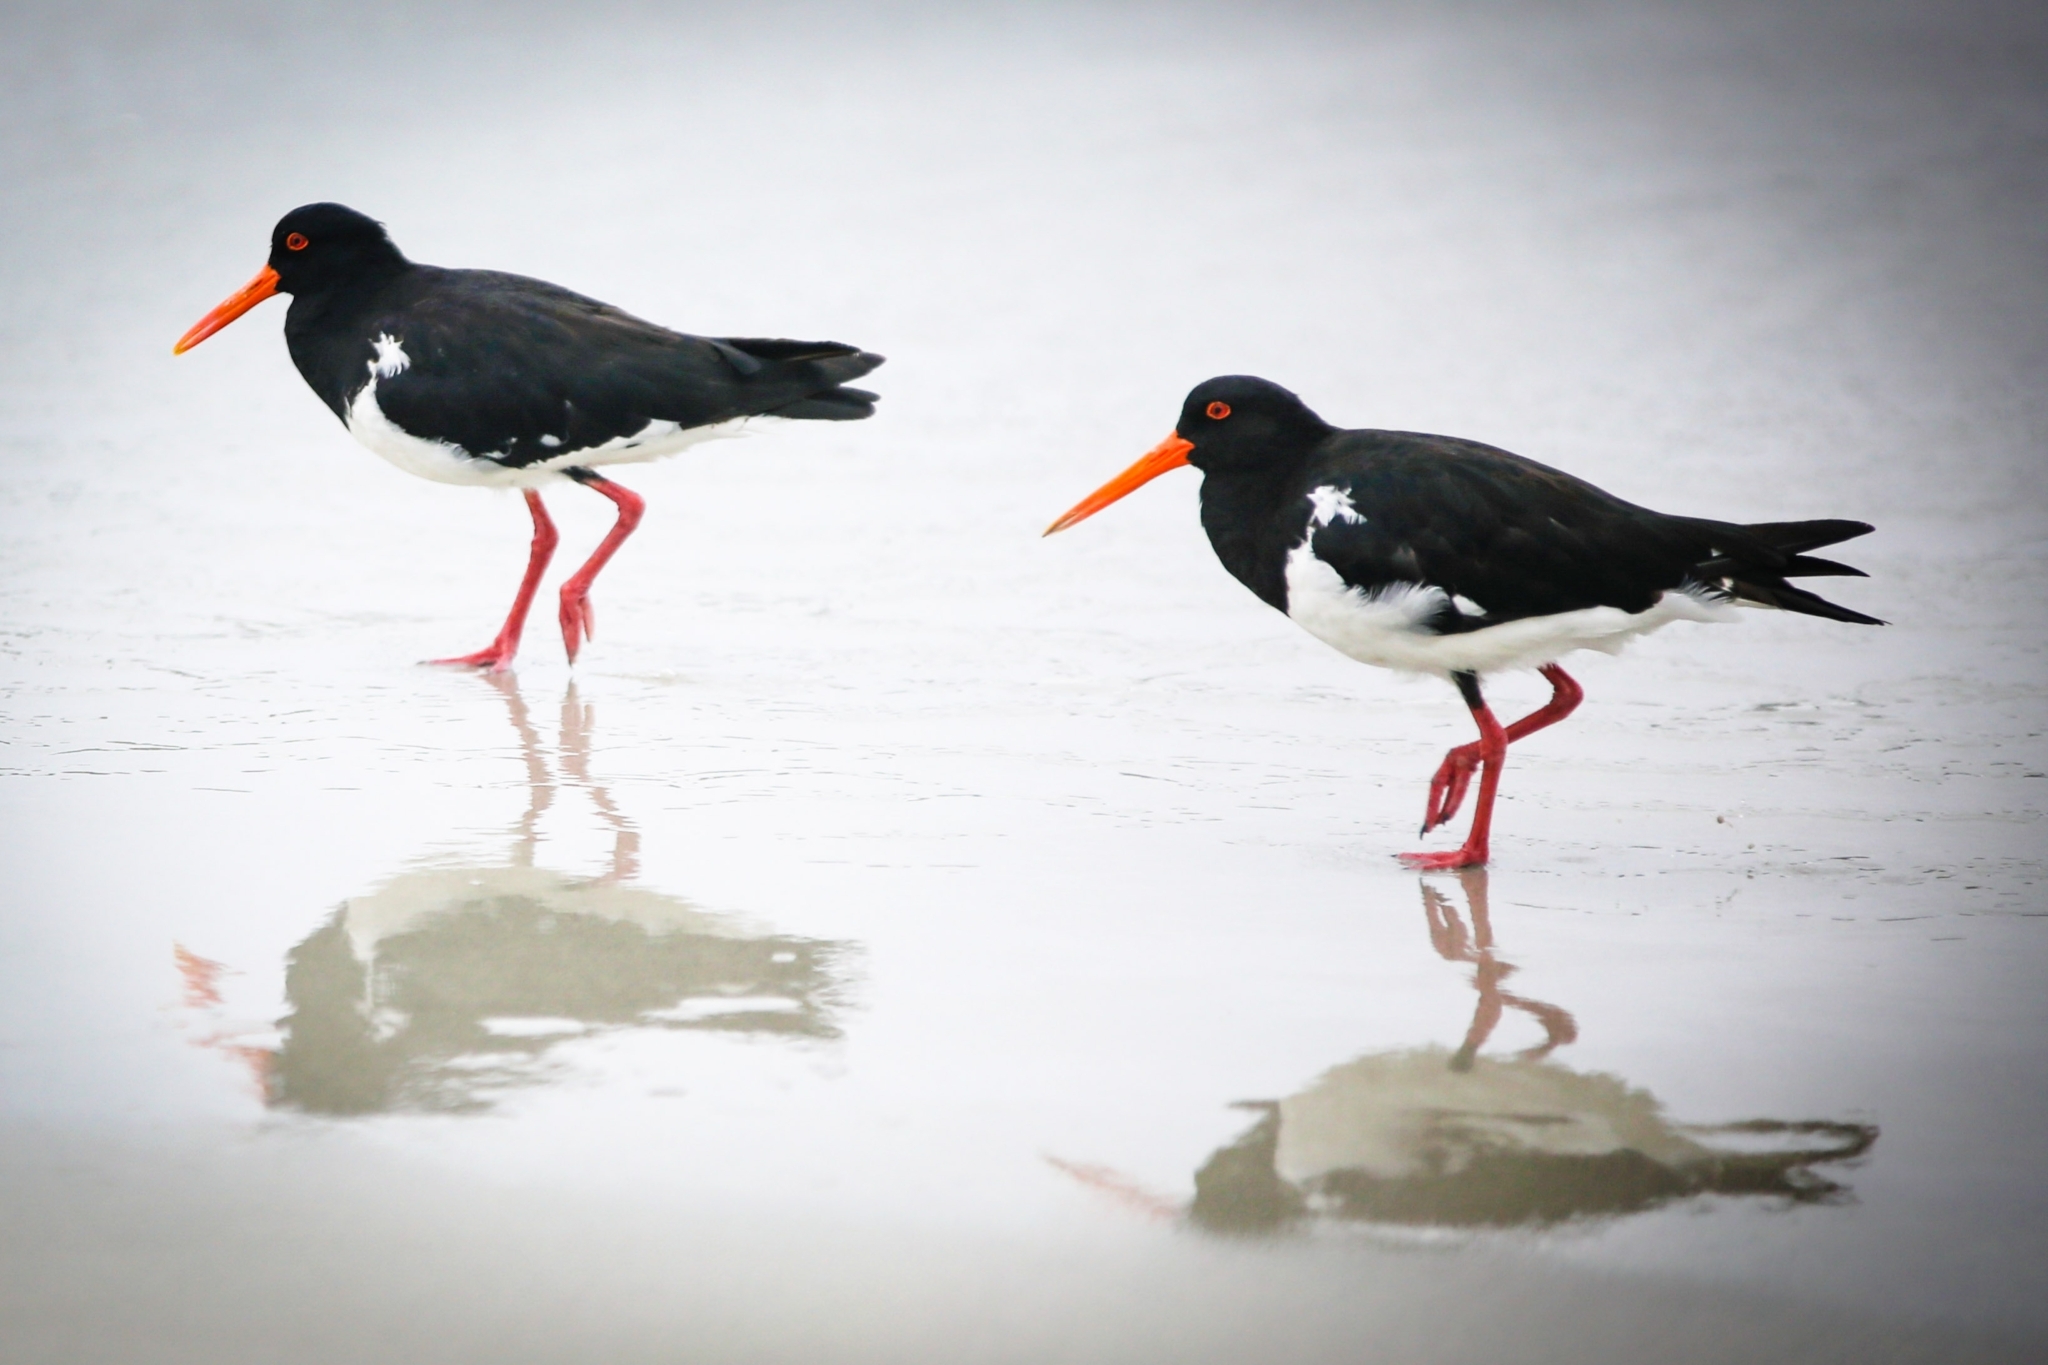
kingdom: Animalia
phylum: Chordata
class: Aves
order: Charadriiformes
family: Haematopodidae
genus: Haematopus
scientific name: Haematopus longirostris
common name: Pied oystercatcher
